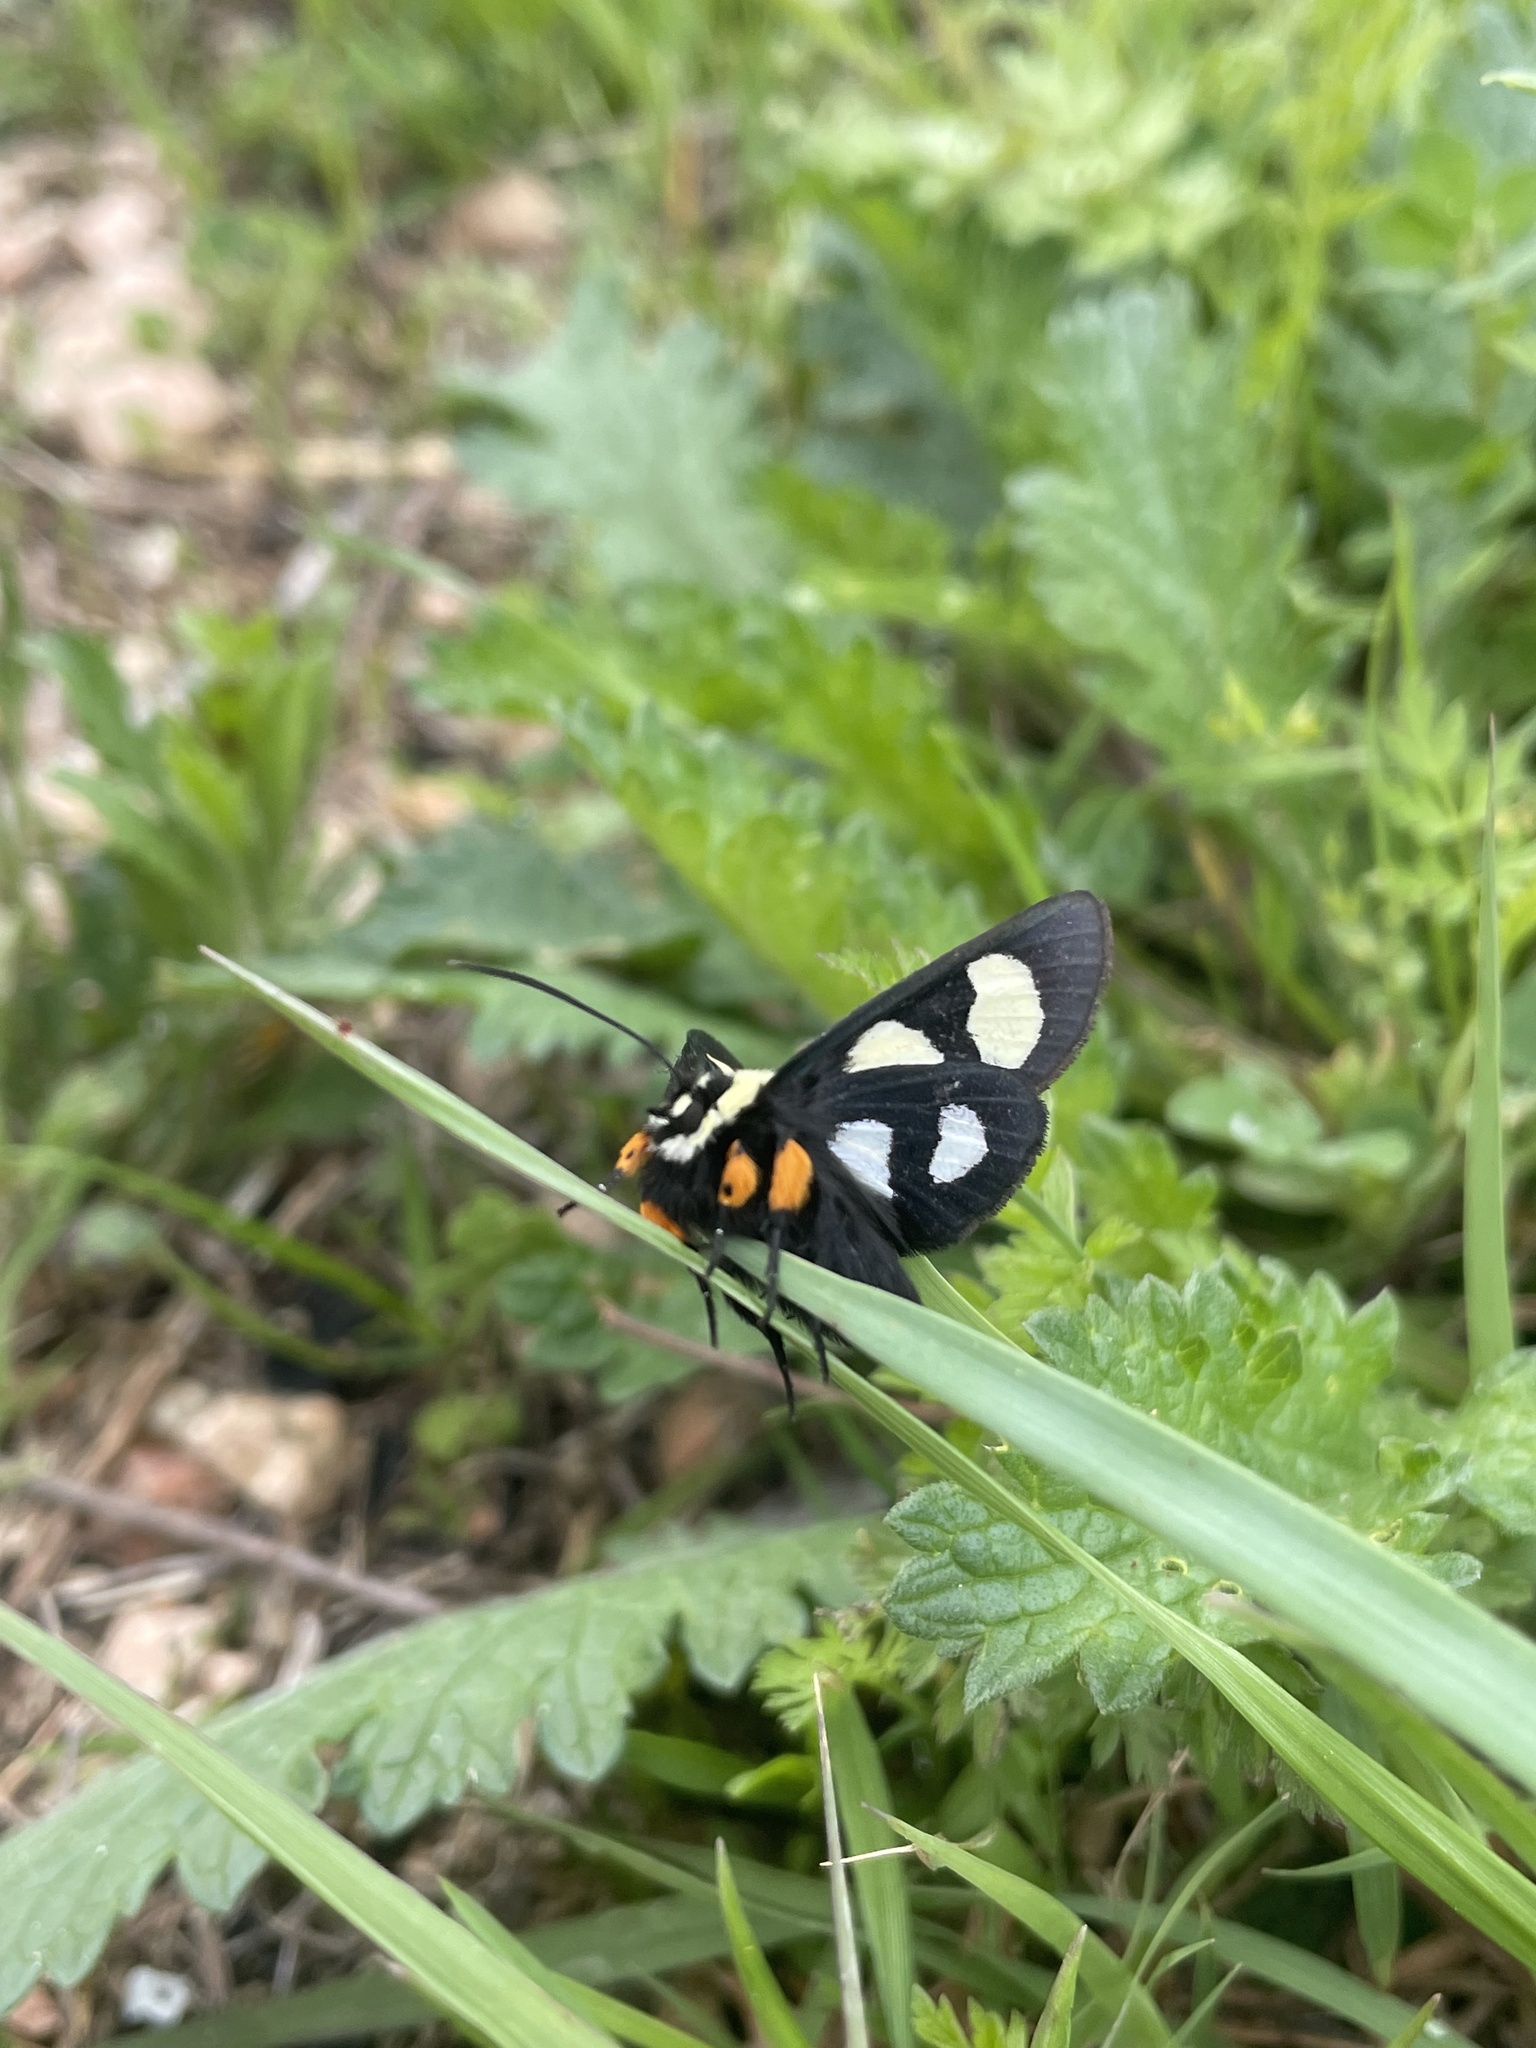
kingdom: Animalia
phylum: Arthropoda
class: Insecta
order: Lepidoptera
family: Noctuidae
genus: Alypia
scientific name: Alypia octomaculata
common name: Eight-spotted forester
